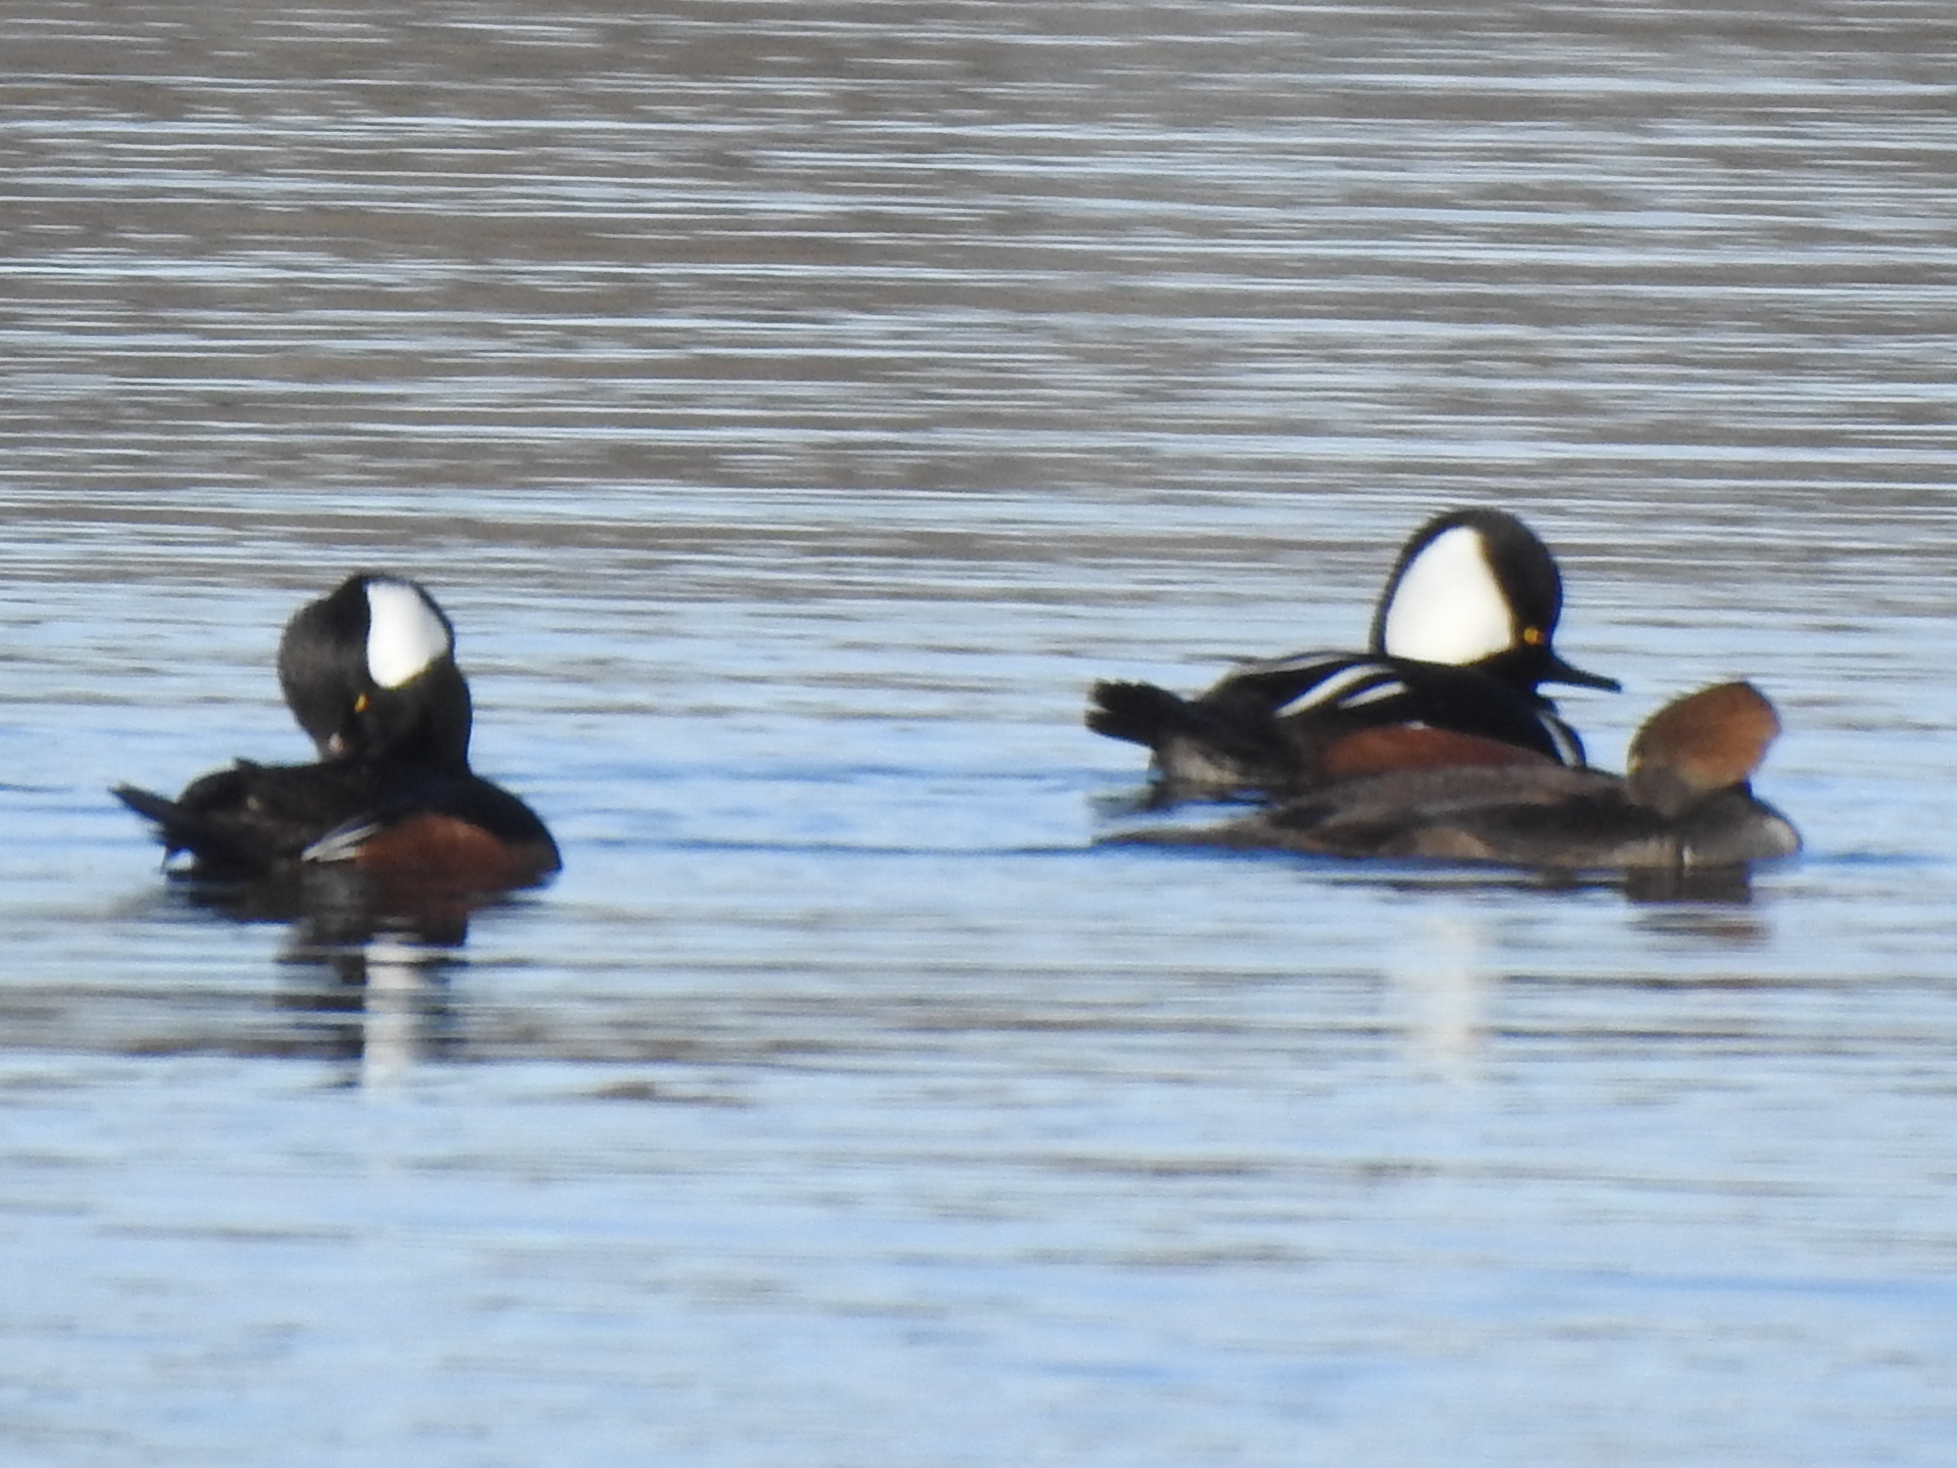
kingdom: Animalia
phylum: Chordata
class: Aves
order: Anseriformes
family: Anatidae
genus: Lophodytes
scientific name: Lophodytes cucullatus
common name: Hooded merganser
